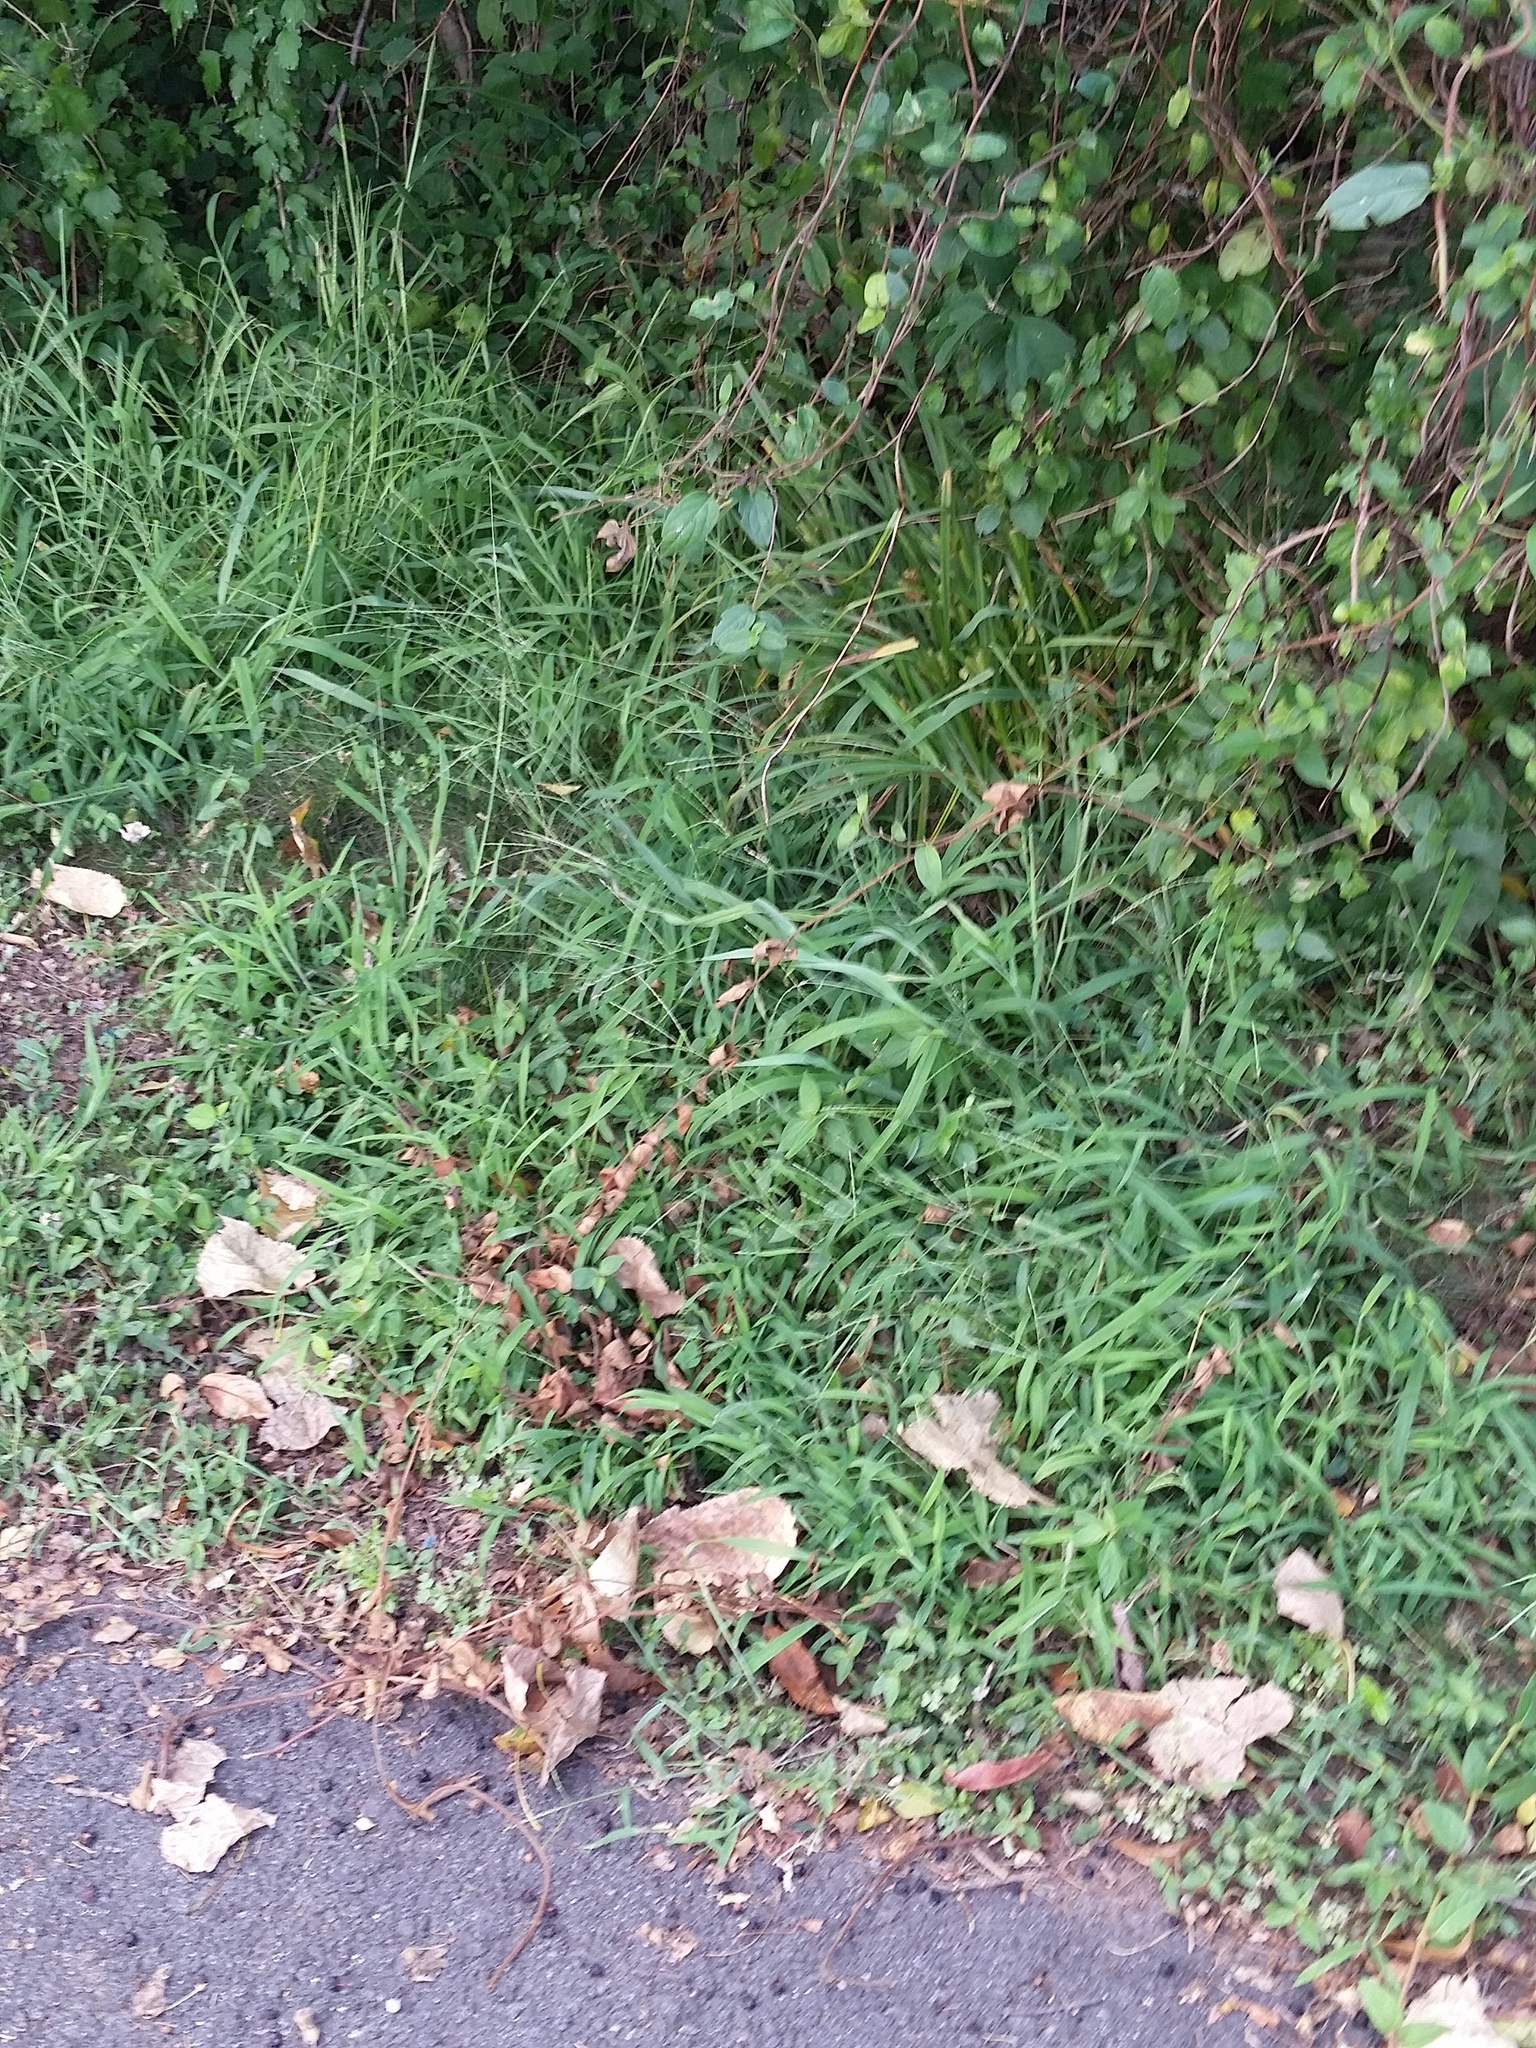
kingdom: Plantae
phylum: Tracheophyta
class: Liliopsida
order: Poales
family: Cyperaceae
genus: Carex
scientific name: Carex frankii
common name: Frank's sedge
